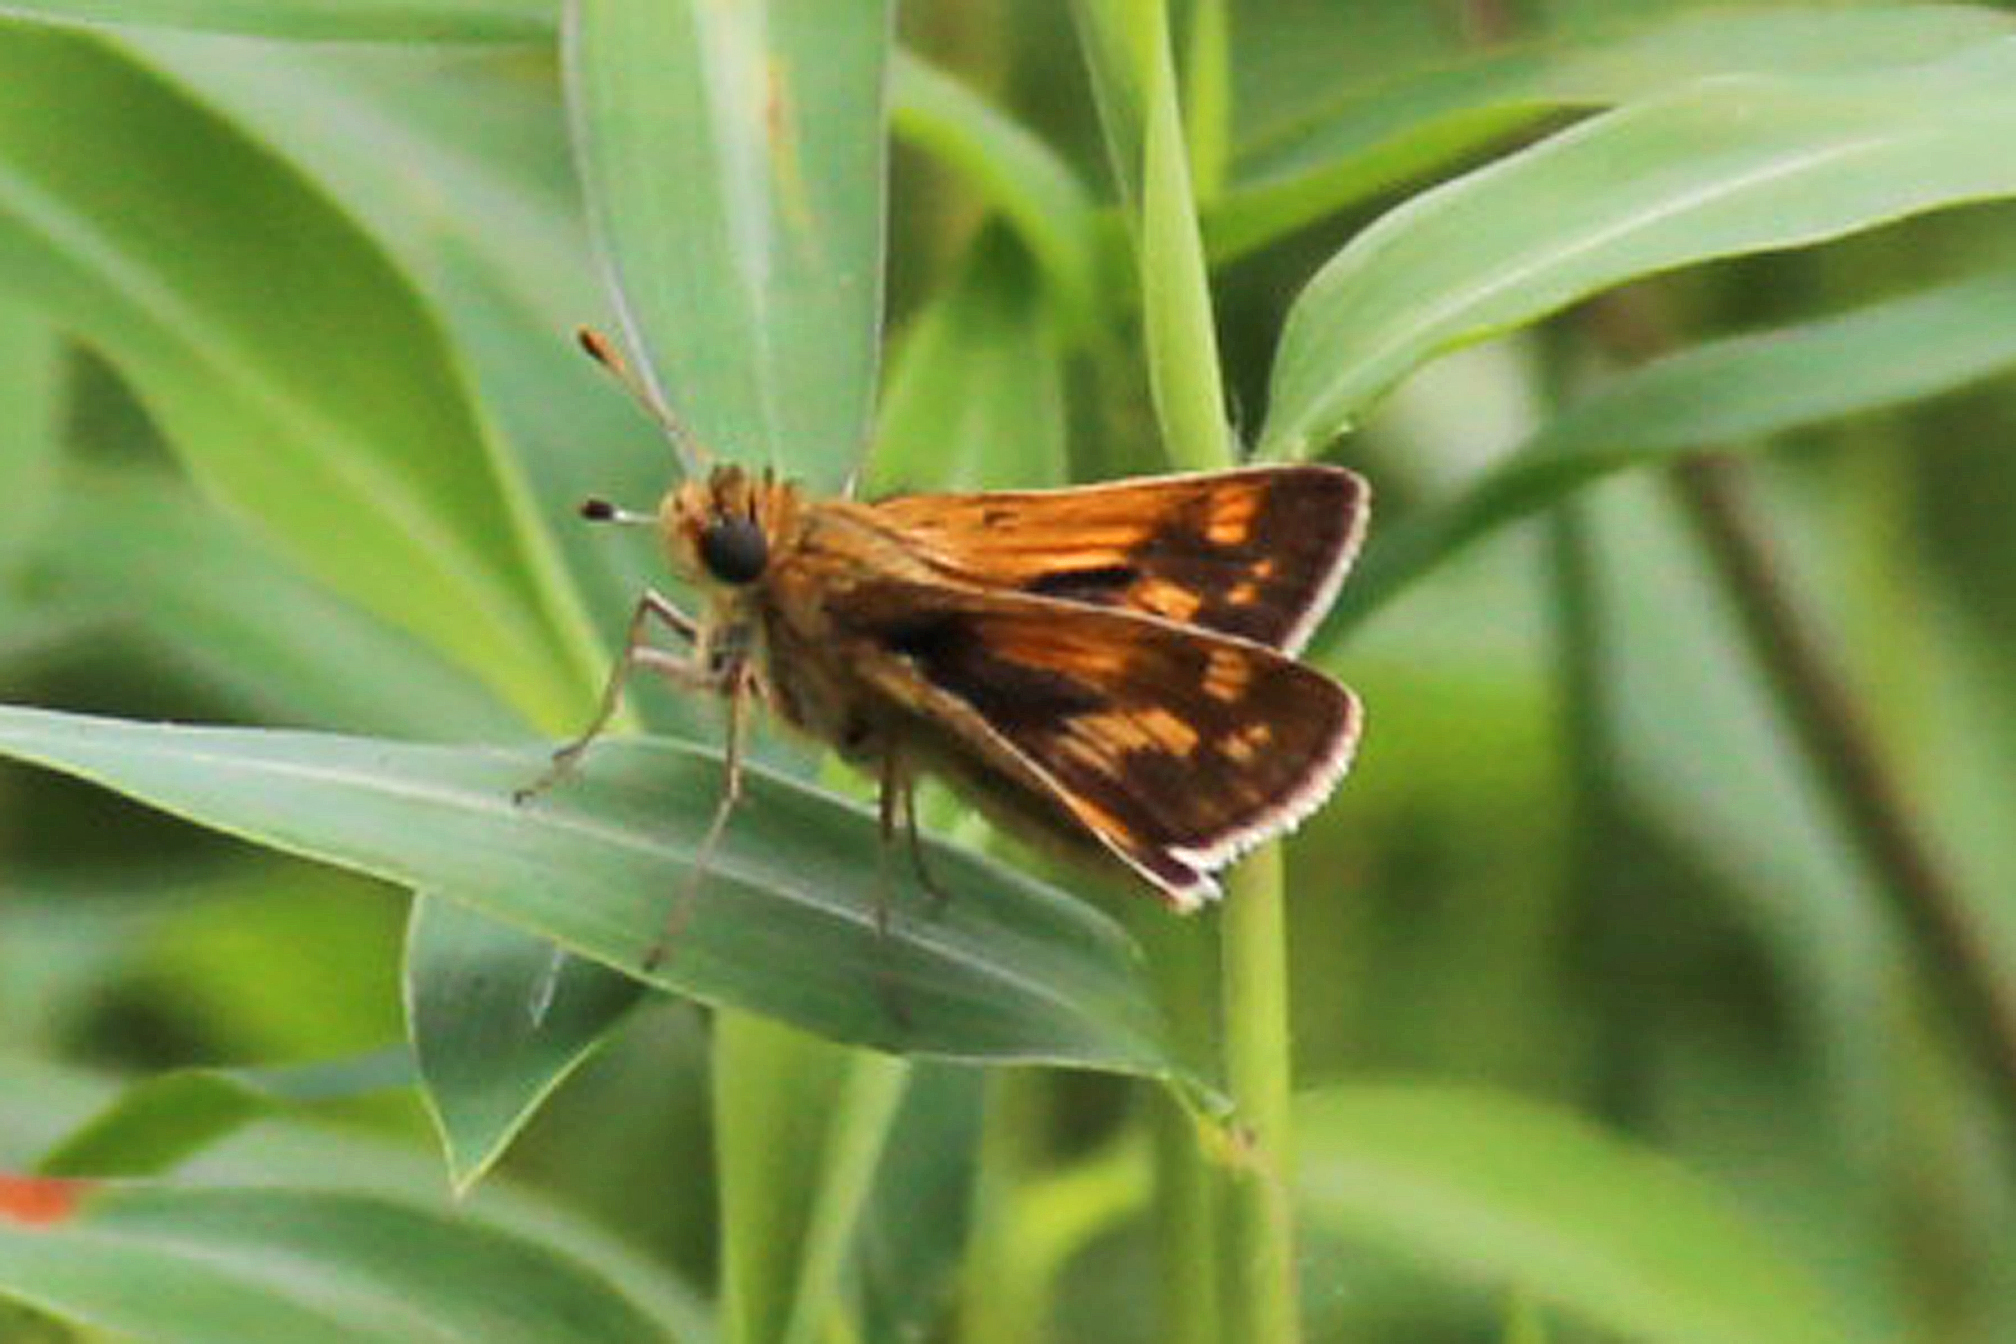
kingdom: Animalia
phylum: Arthropoda
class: Insecta
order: Lepidoptera
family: Hesperiidae
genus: Polites
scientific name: Polites coras
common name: Peck's skipper
